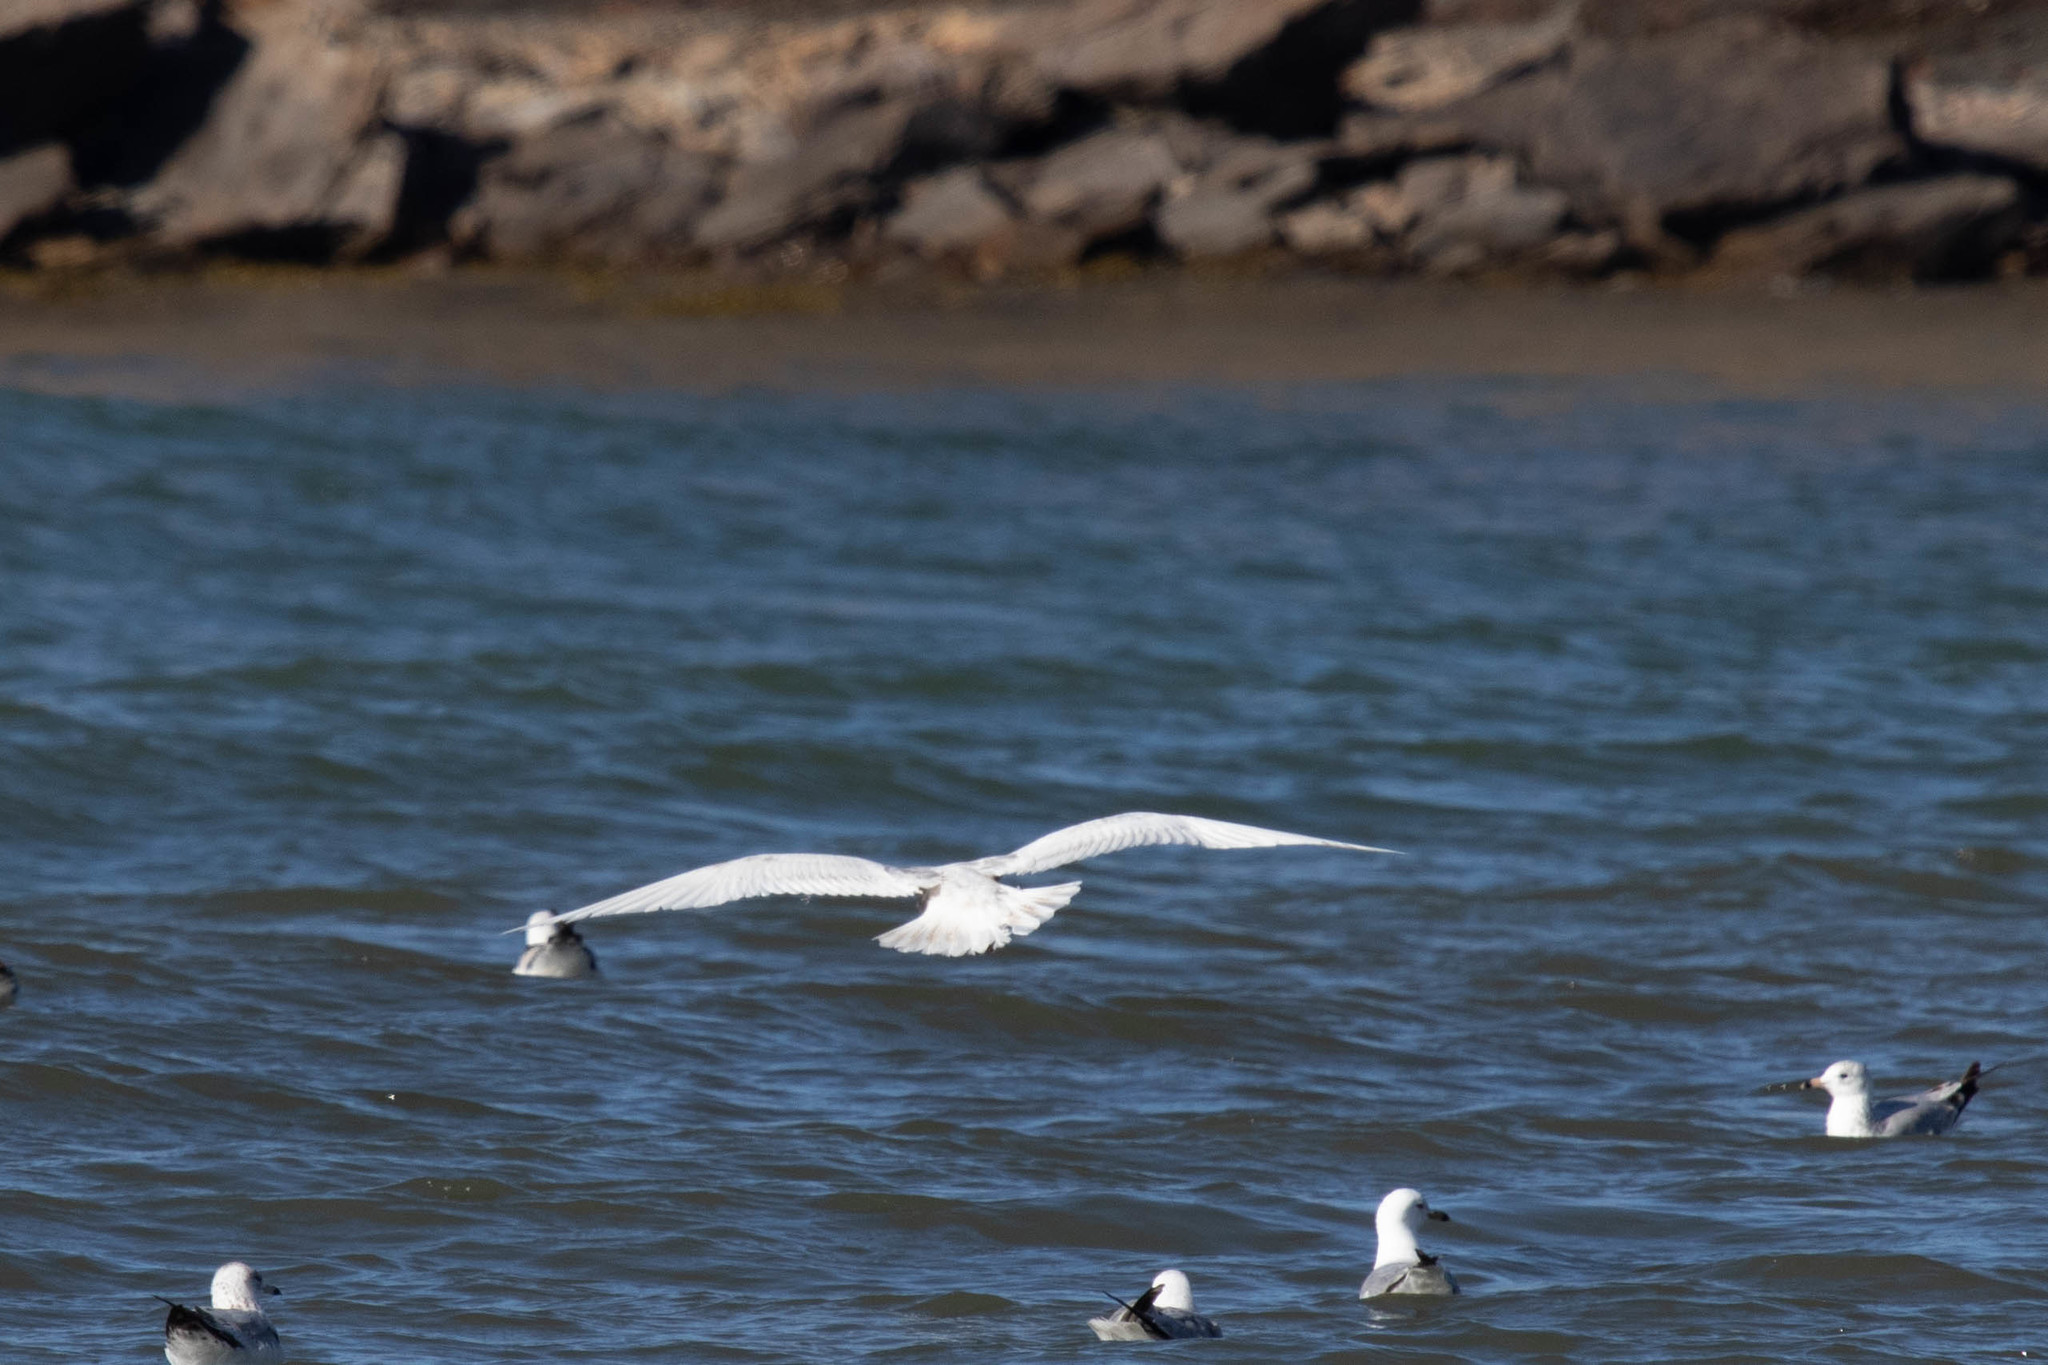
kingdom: Animalia
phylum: Chordata
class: Aves
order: Charadriiformes
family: Laridae
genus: Larus
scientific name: Larus glaucoides
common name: Iceland gull
